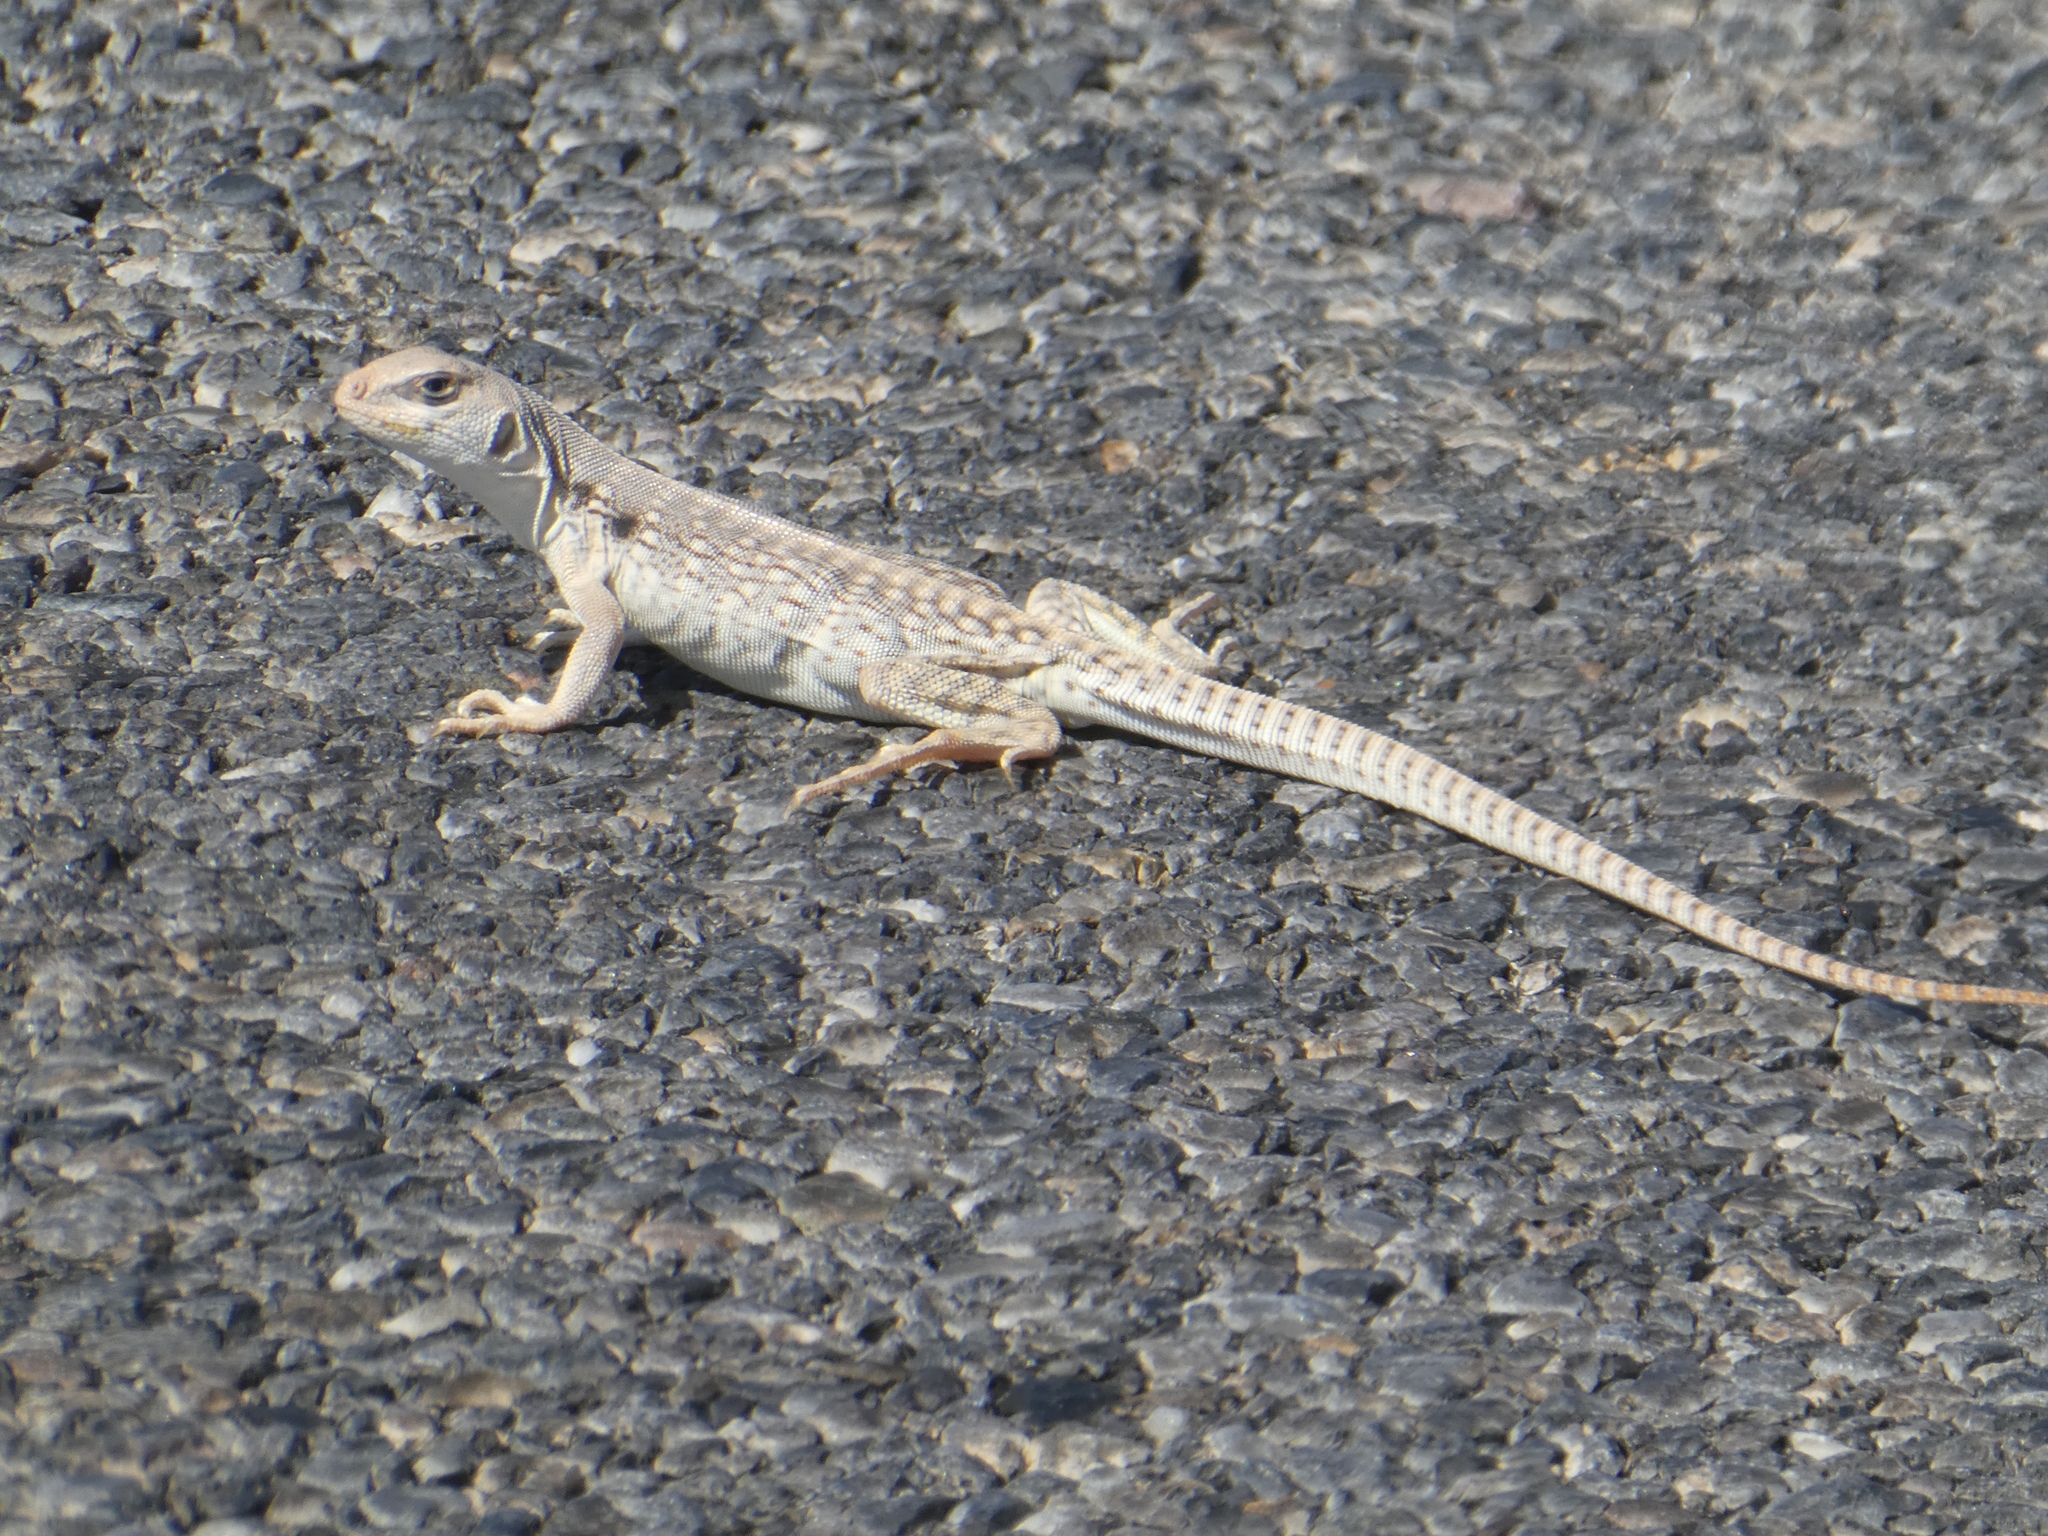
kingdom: Animalia
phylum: Chordata
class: Squamata
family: Iguanidae
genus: Dipsosaurus
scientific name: Dipsosaurus dorsalis
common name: Desert iguana
